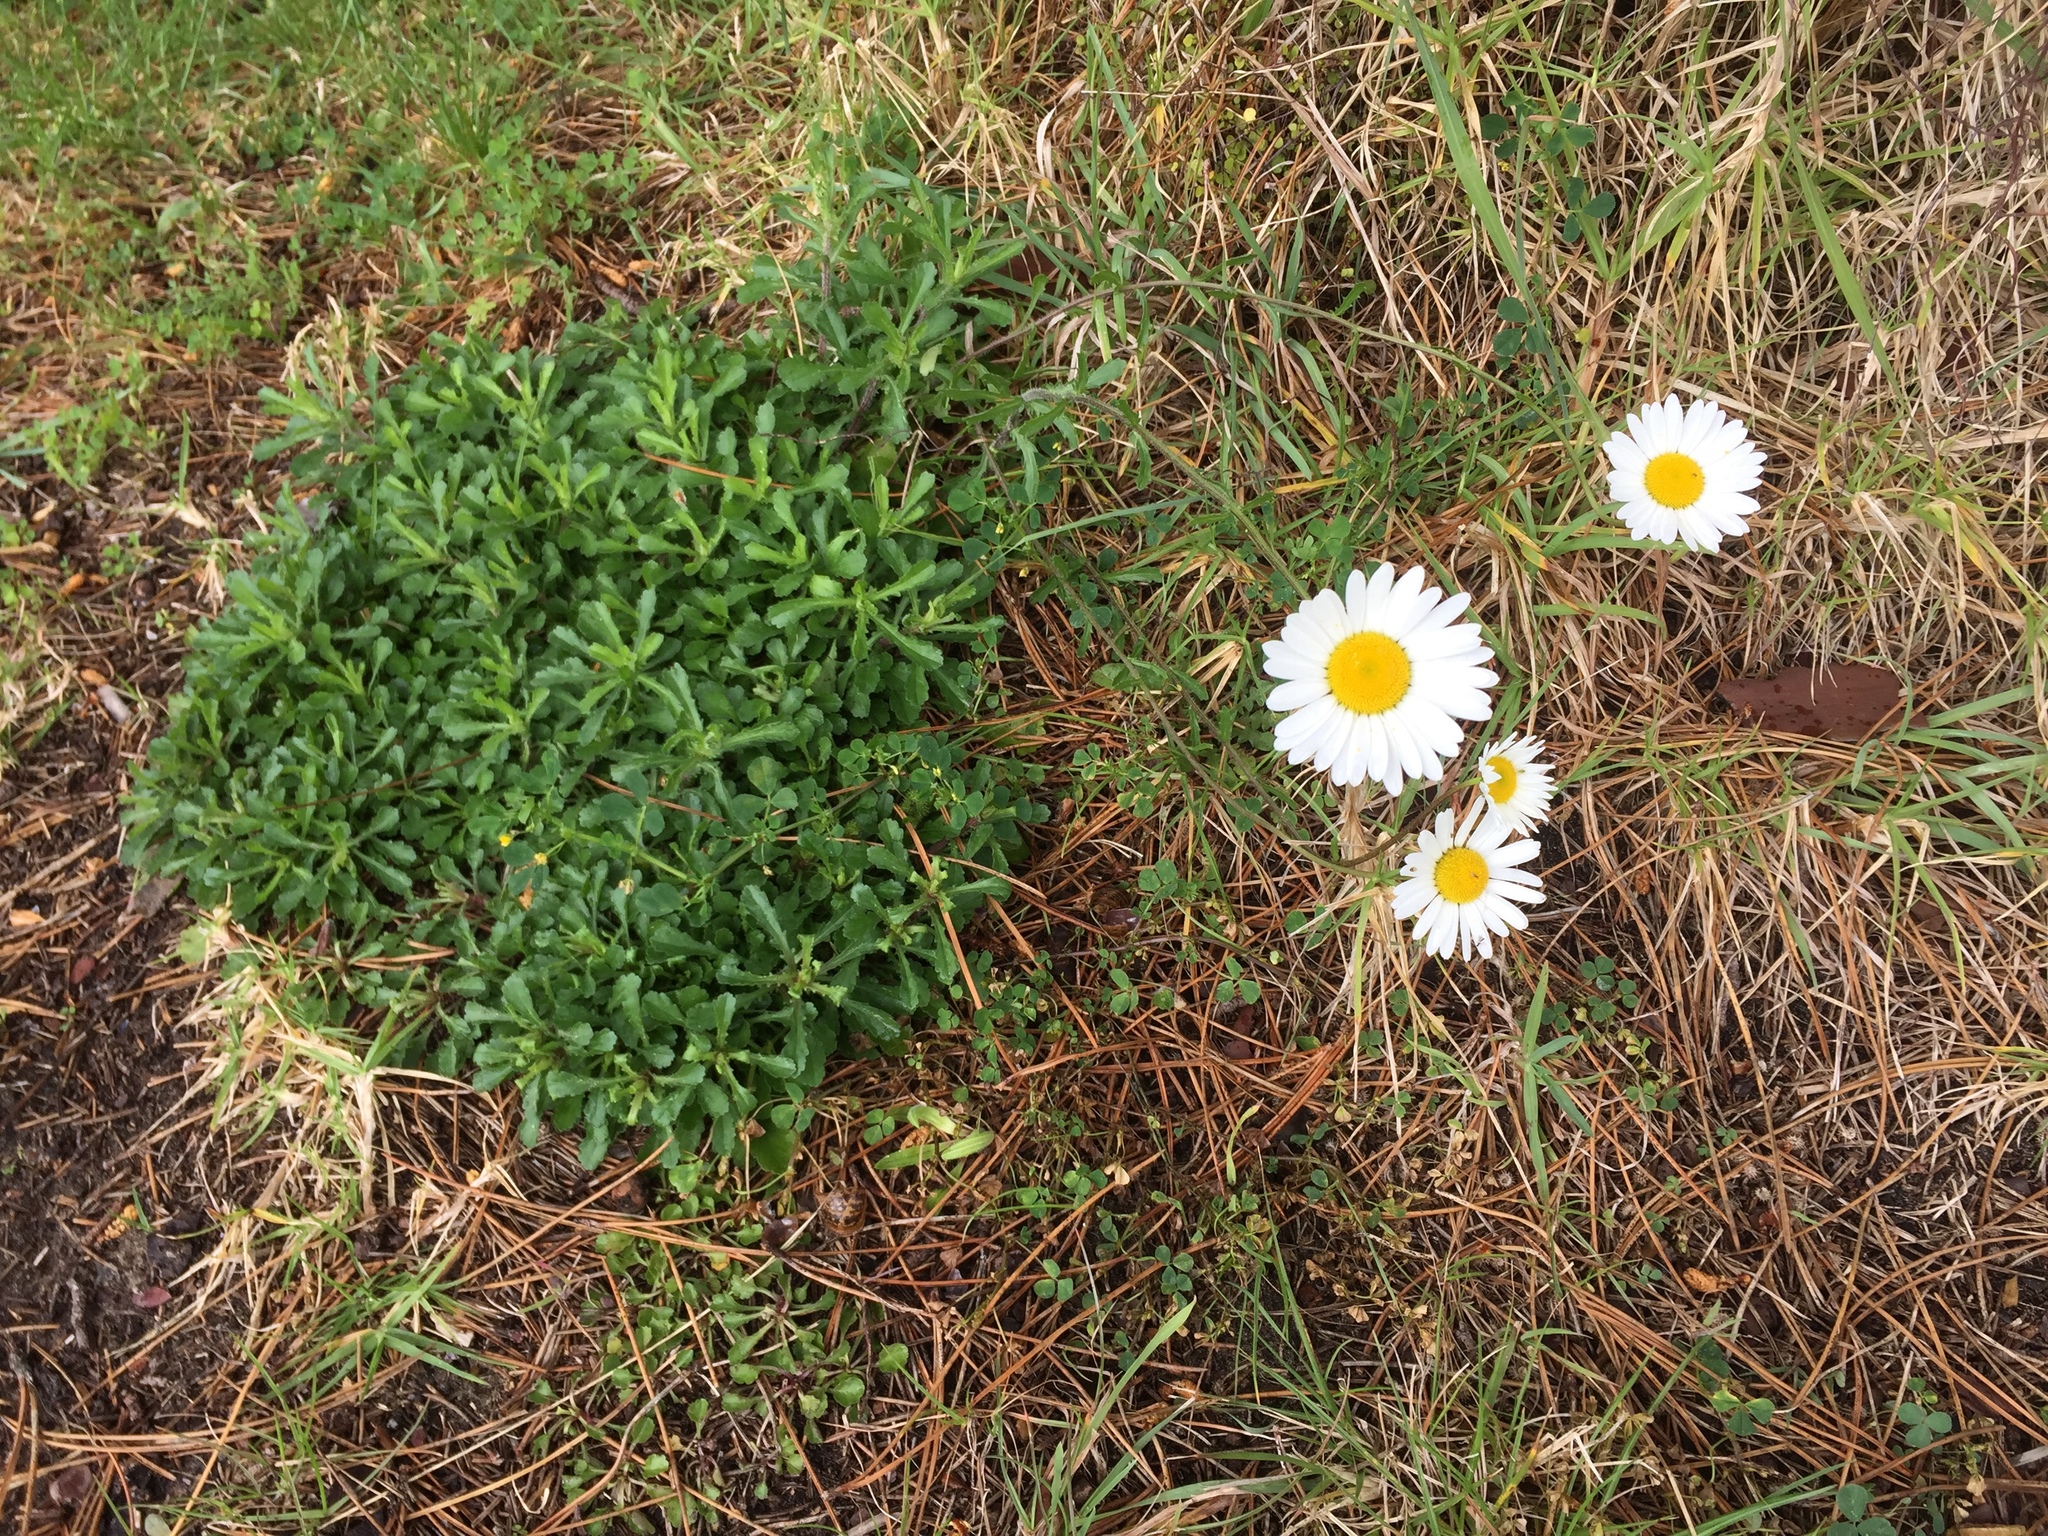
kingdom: Plantae
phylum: Tracheophyta
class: Magnoliopsida
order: Asterales
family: Asteraceae
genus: Leucanthemum
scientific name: Leucanthemum vulgare
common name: Oxeye daisy
